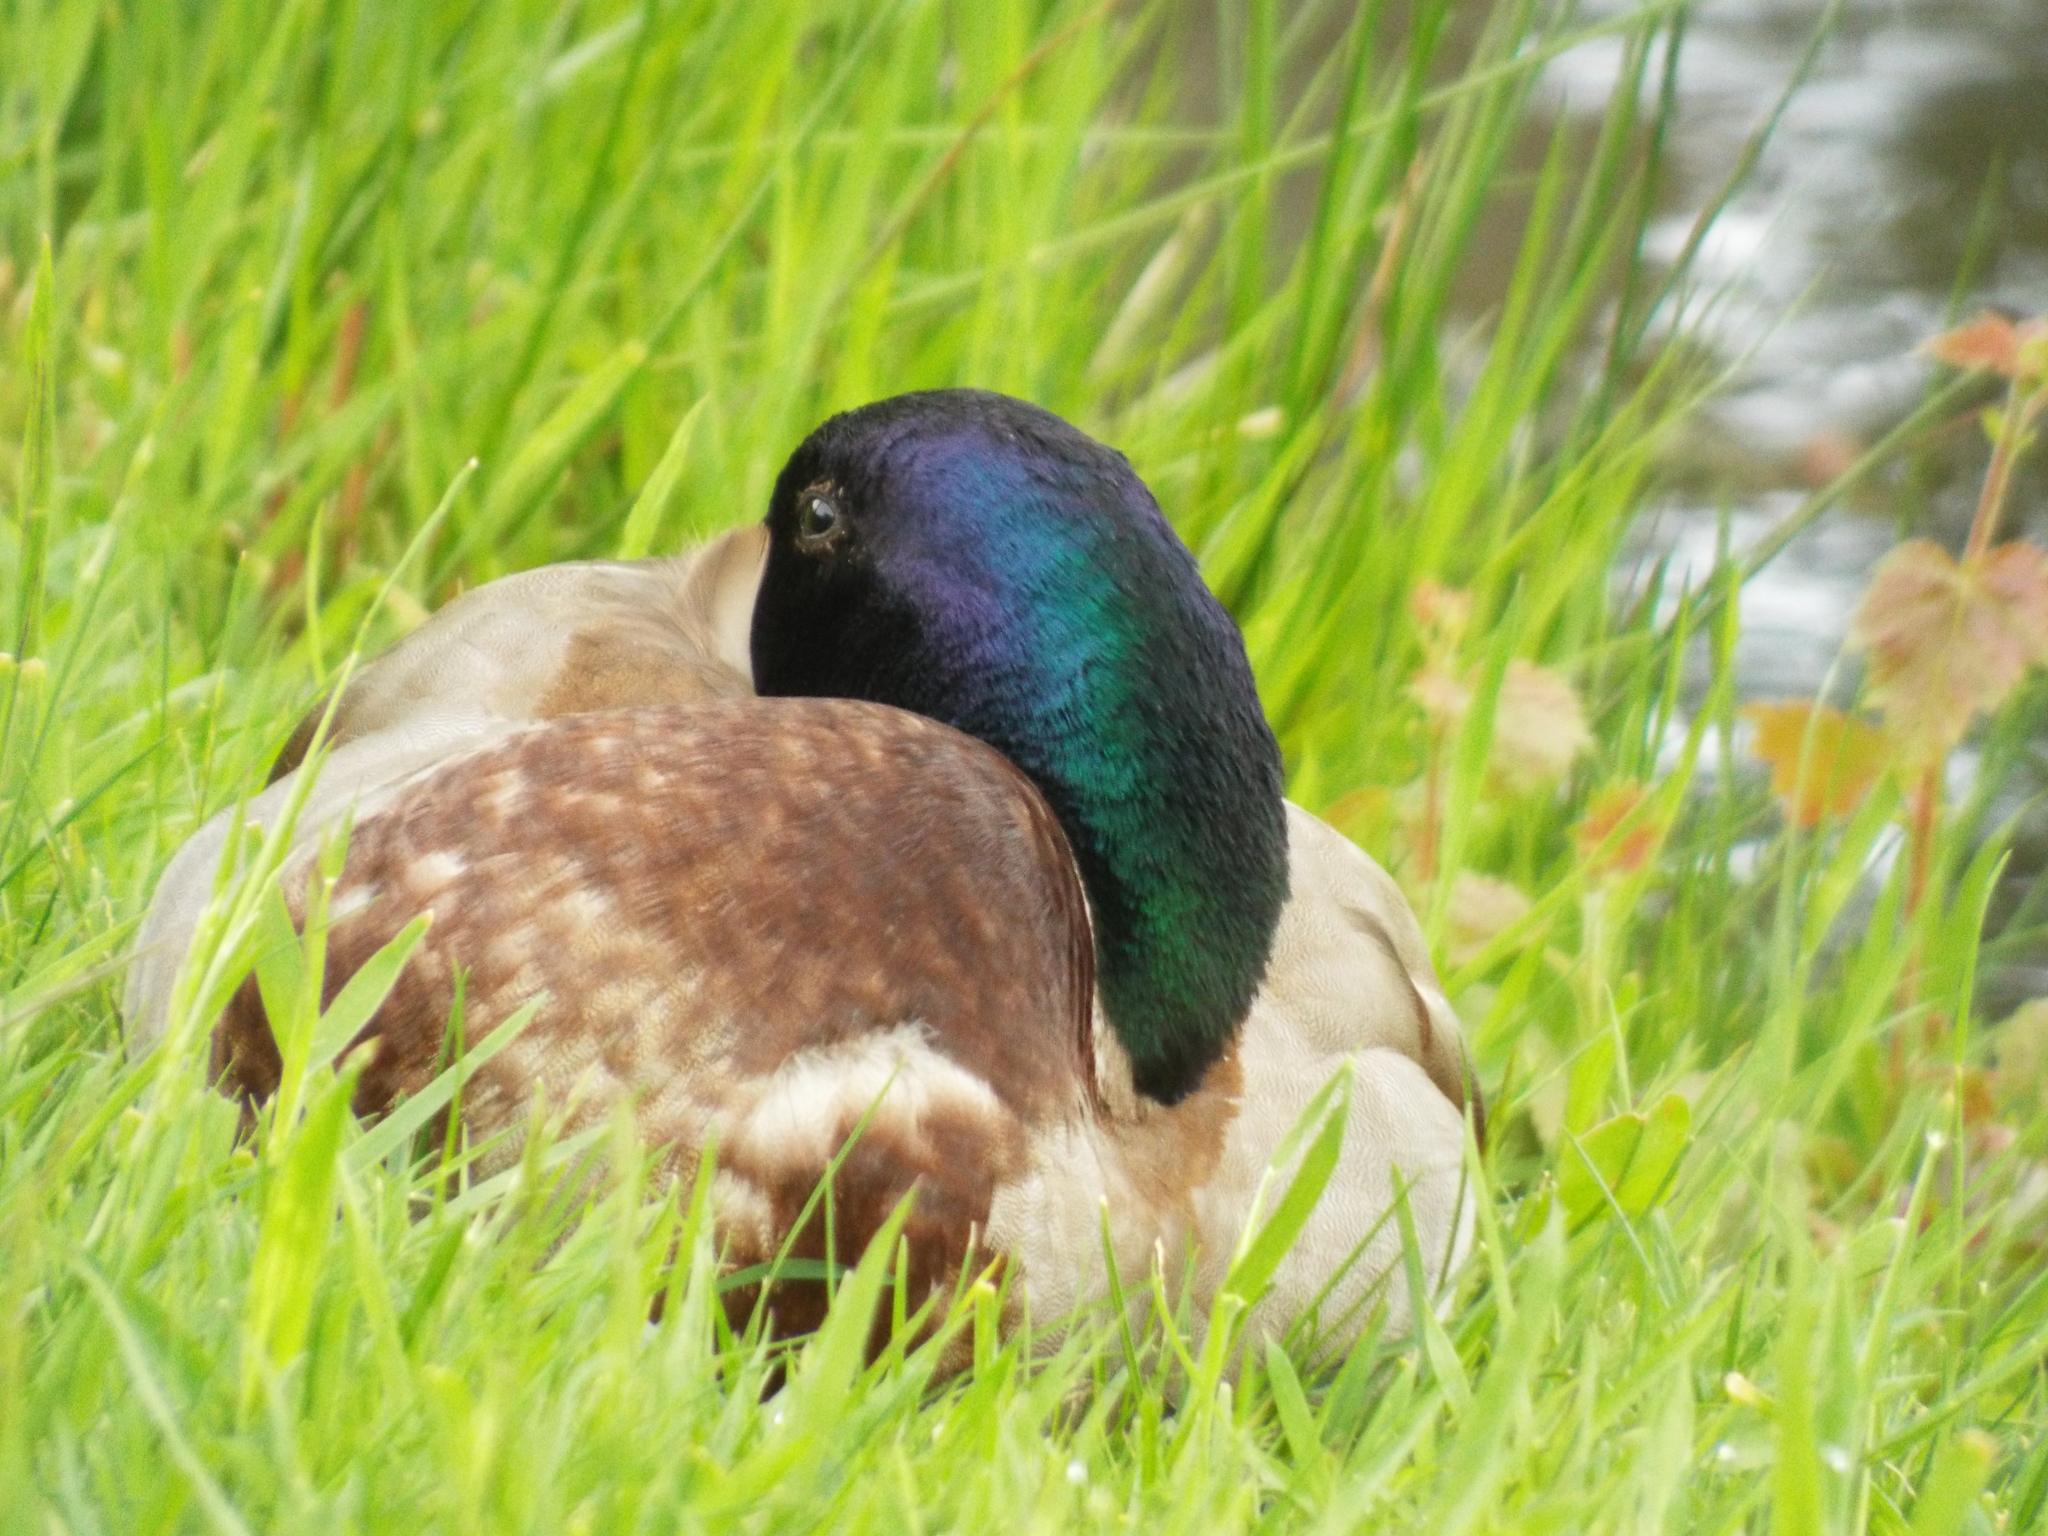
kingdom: Animalia
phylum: Chordata
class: Aves
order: Anseriformes
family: Anatidae
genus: Anas
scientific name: Anas platyrhynchos
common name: Mallard
